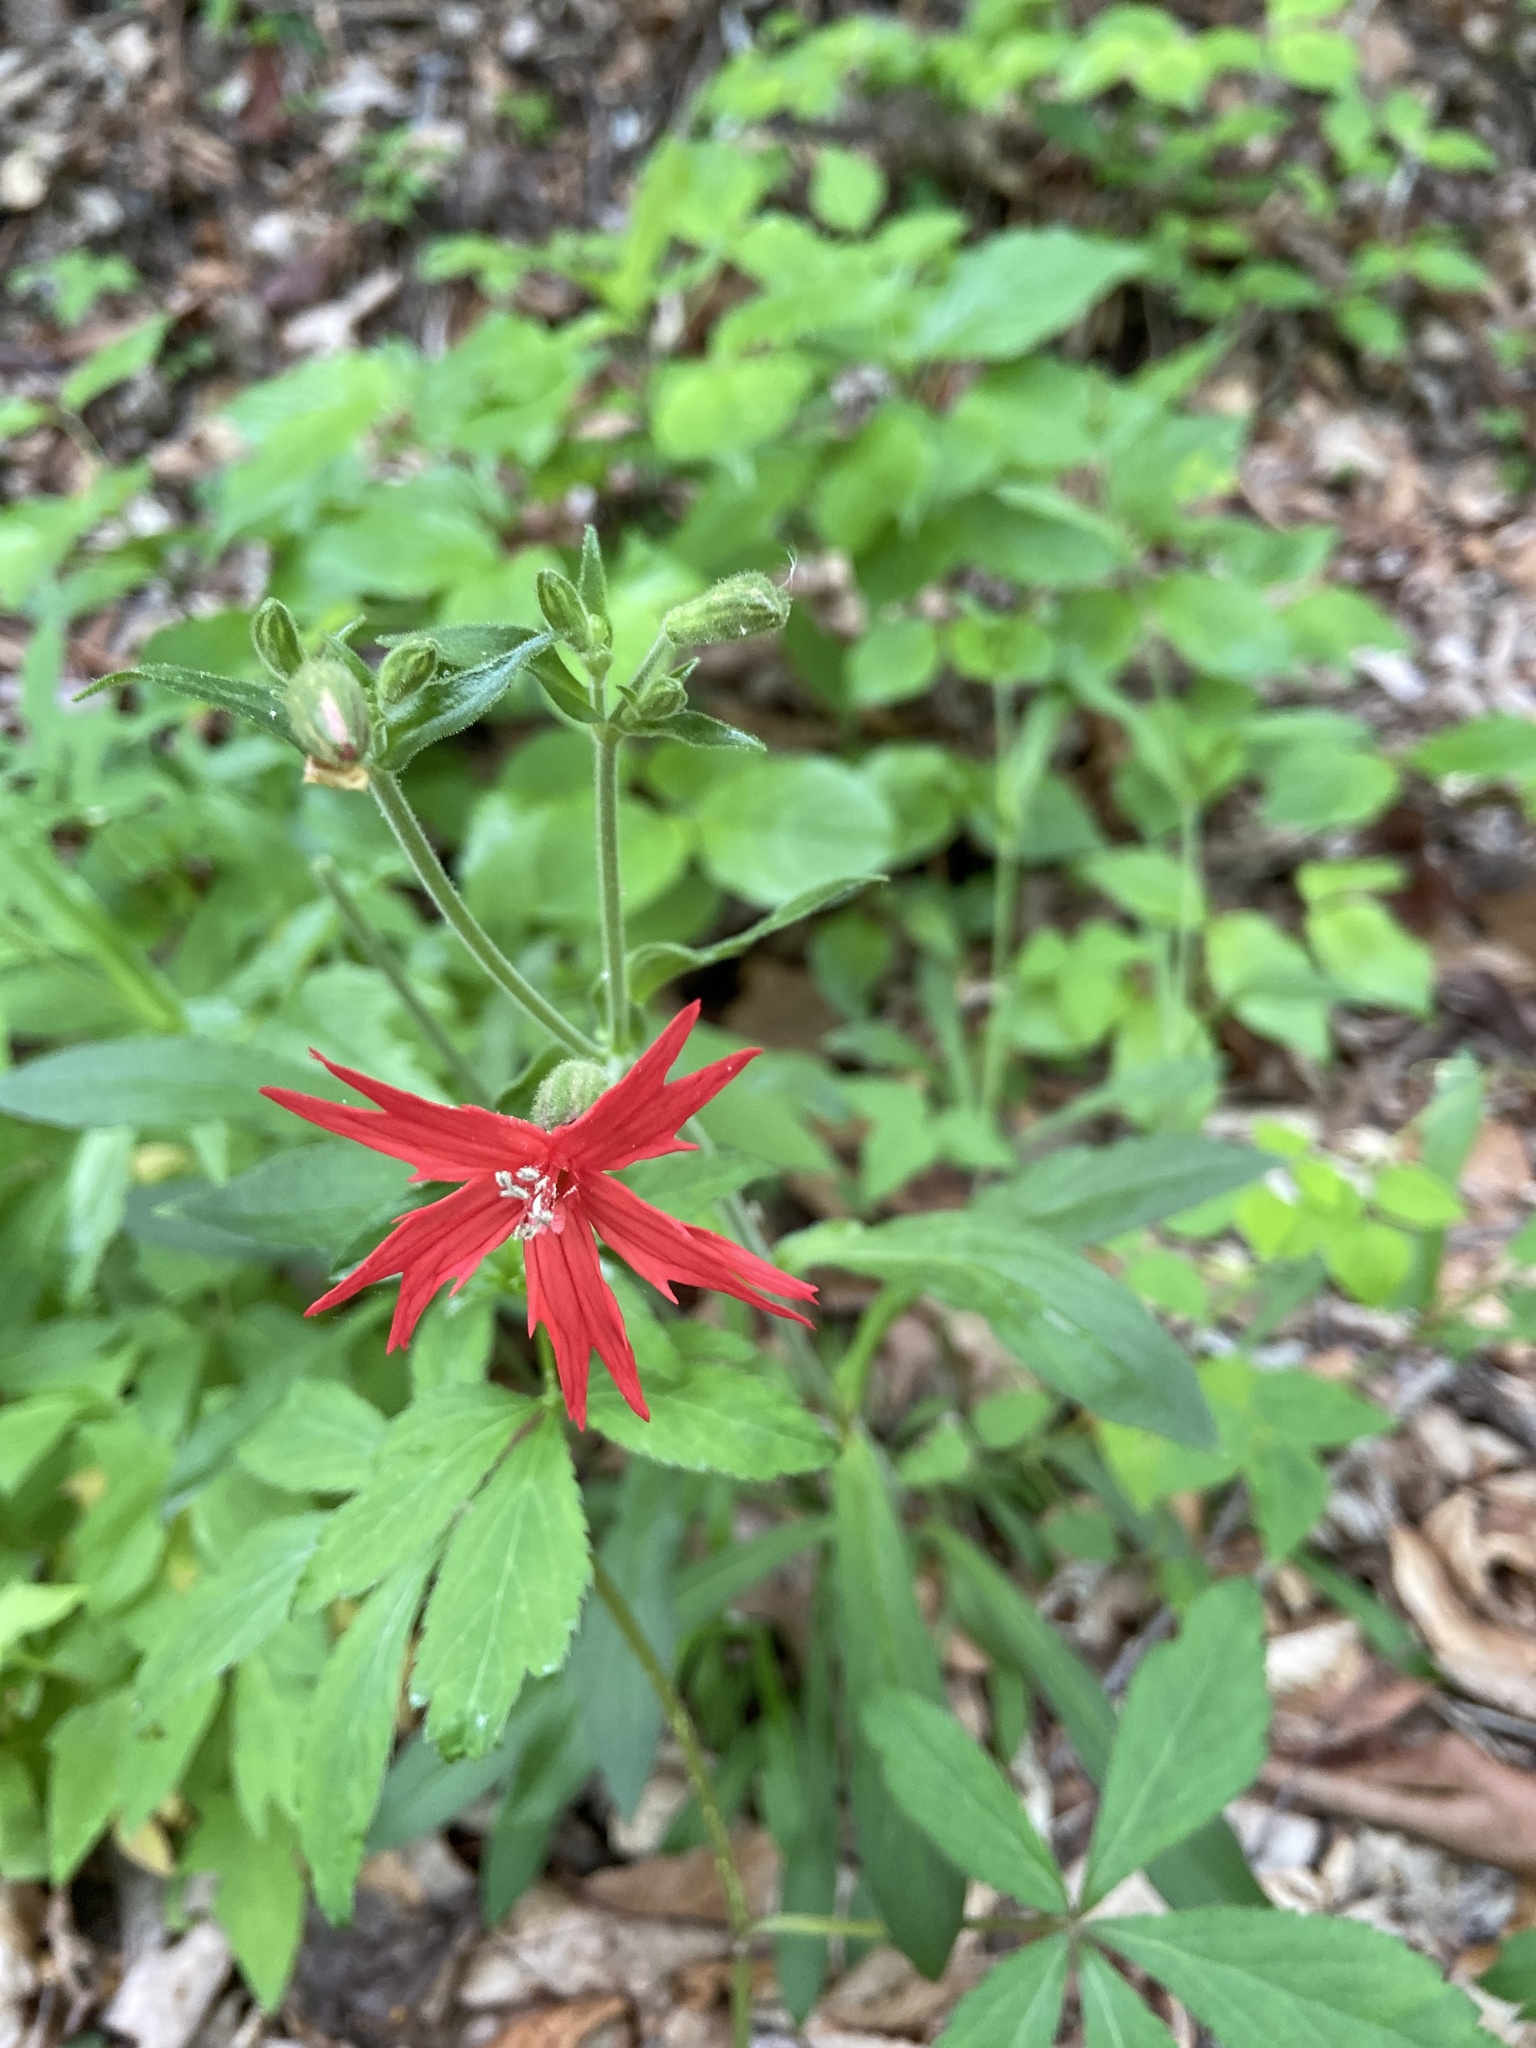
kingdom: Plantae
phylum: Tracheophyta
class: Magnoliopsida
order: Caryophyllales
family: Caryophyllaceae
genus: Silene
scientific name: Silene virginica
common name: Fire-pink
